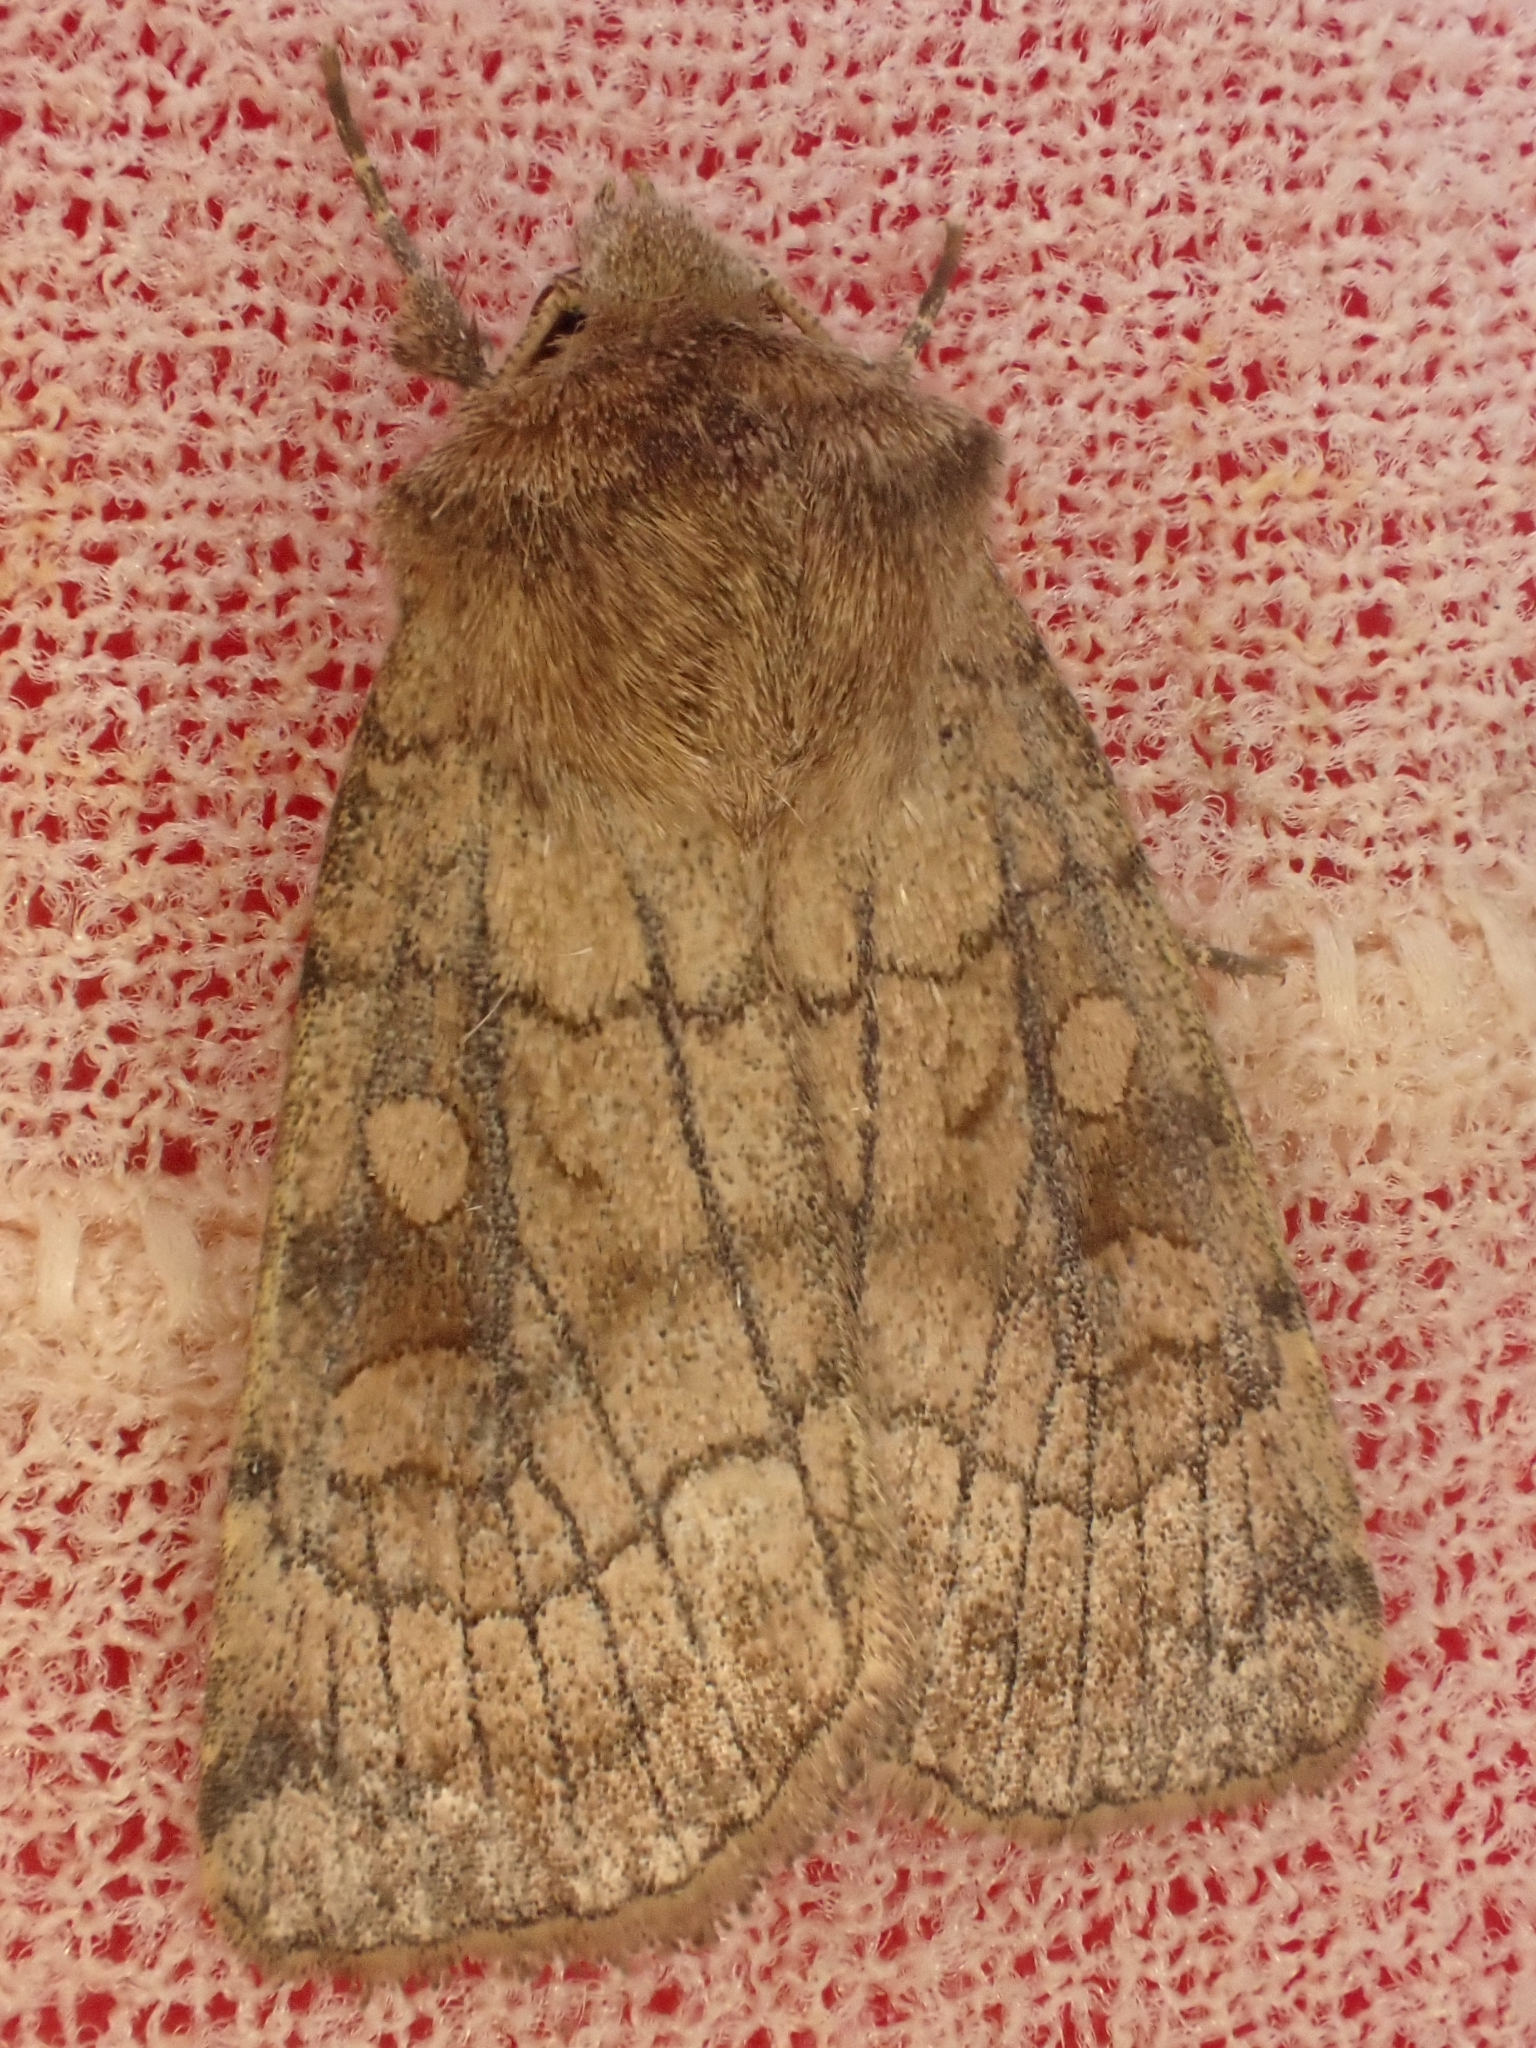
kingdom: Animalia
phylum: Arthropoda
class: Insecta
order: Lepidoptera
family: Noctuidae
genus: Xestia
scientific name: Xestia sexstrigata
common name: Six-striped rustic
